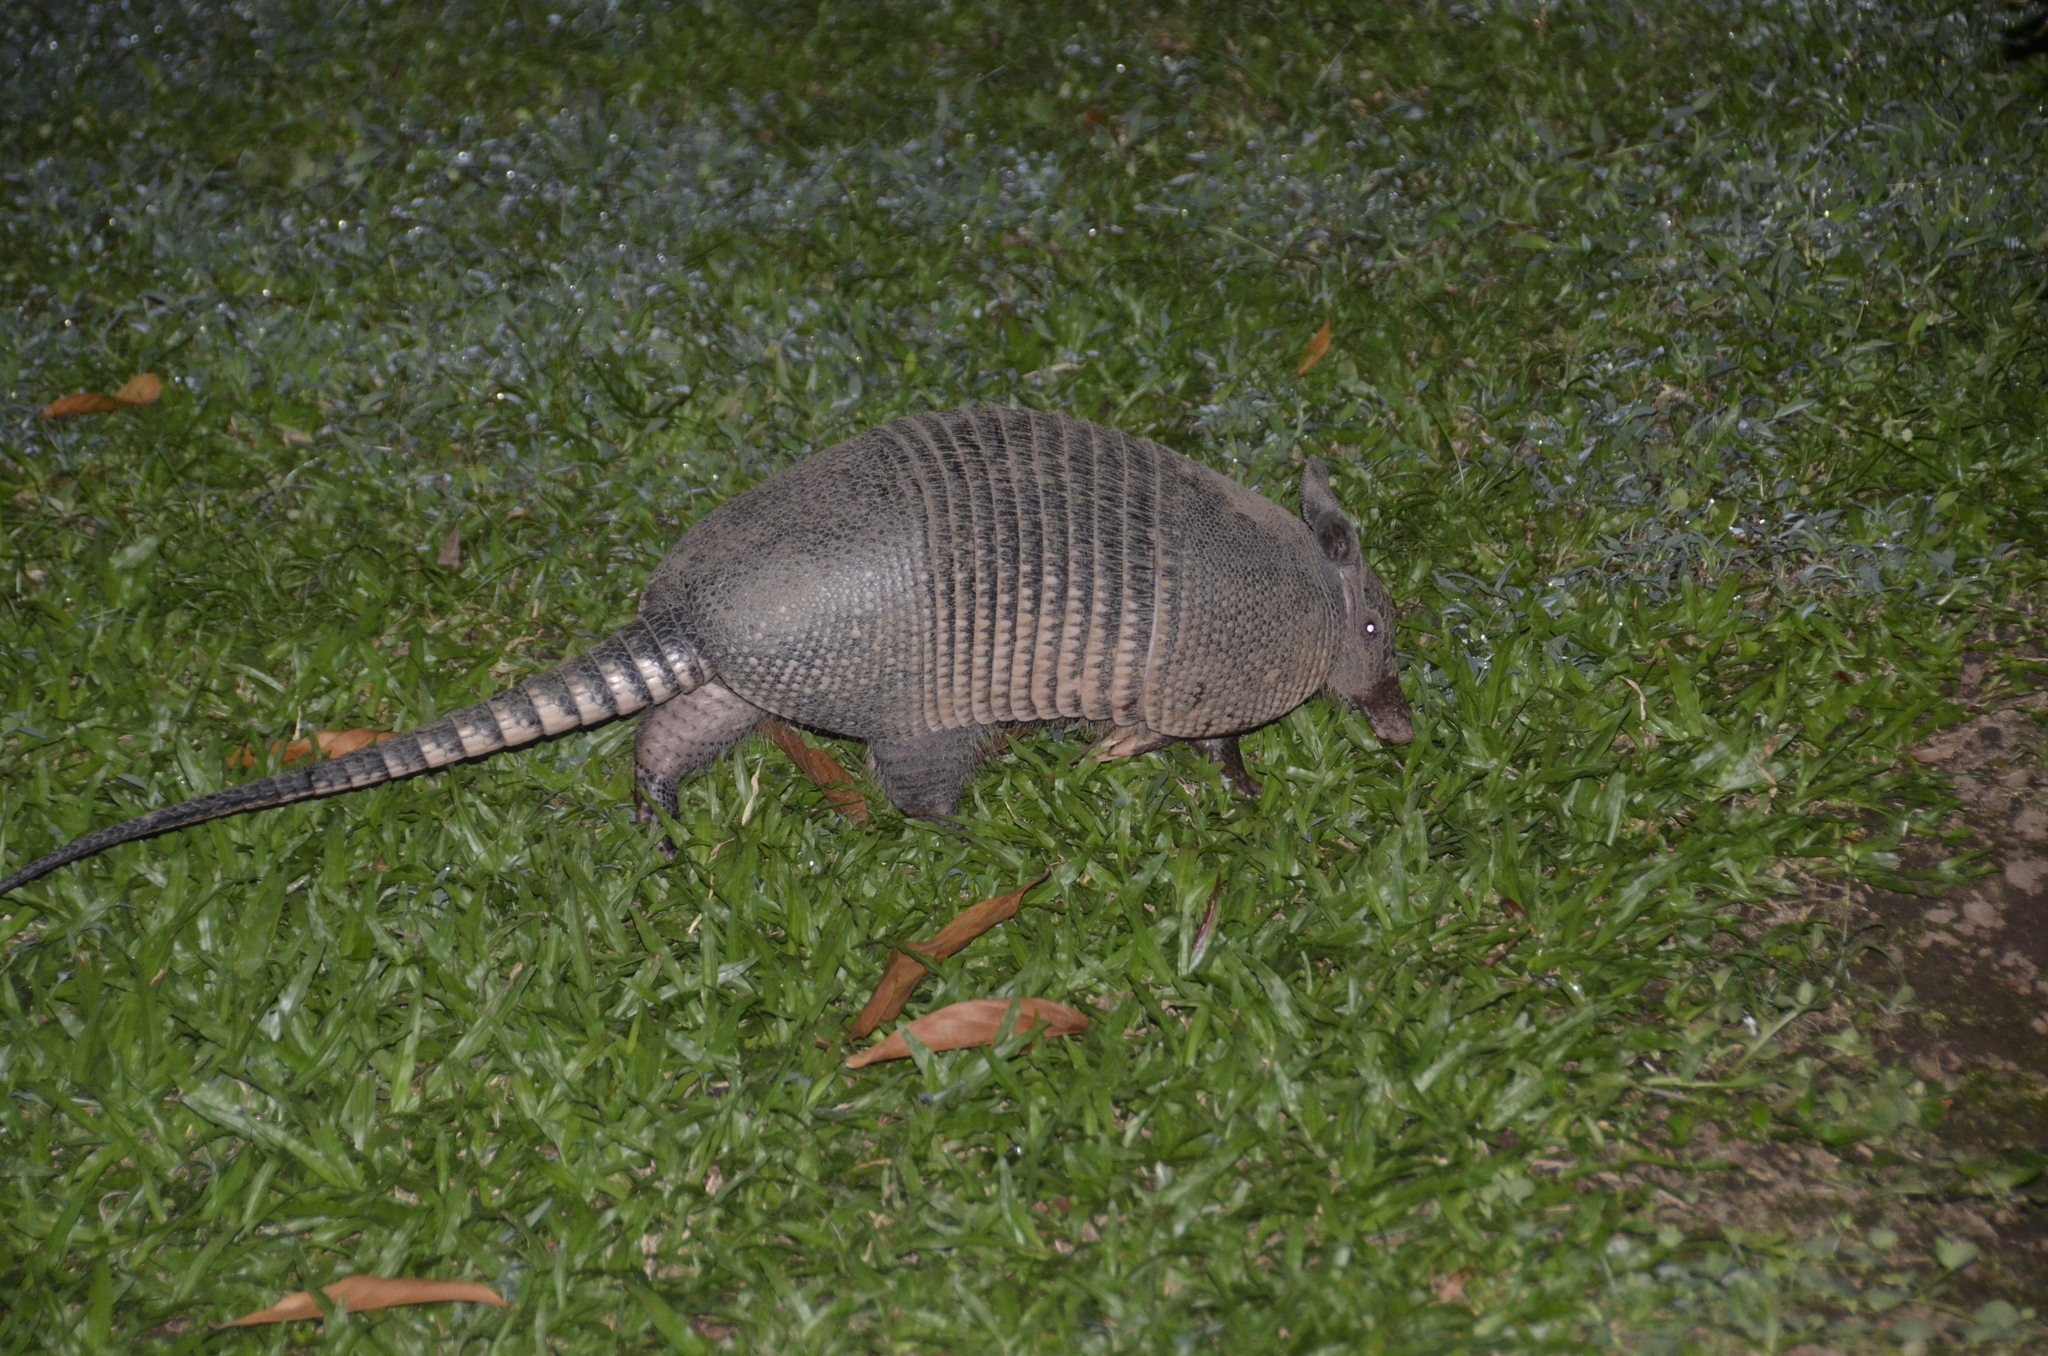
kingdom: Animalia
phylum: Chordata
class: Mammalia
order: Cingulata
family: Dasypodidae
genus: Dasypus
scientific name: Dasypus novemcinctus
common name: Nine-banded armadillo
